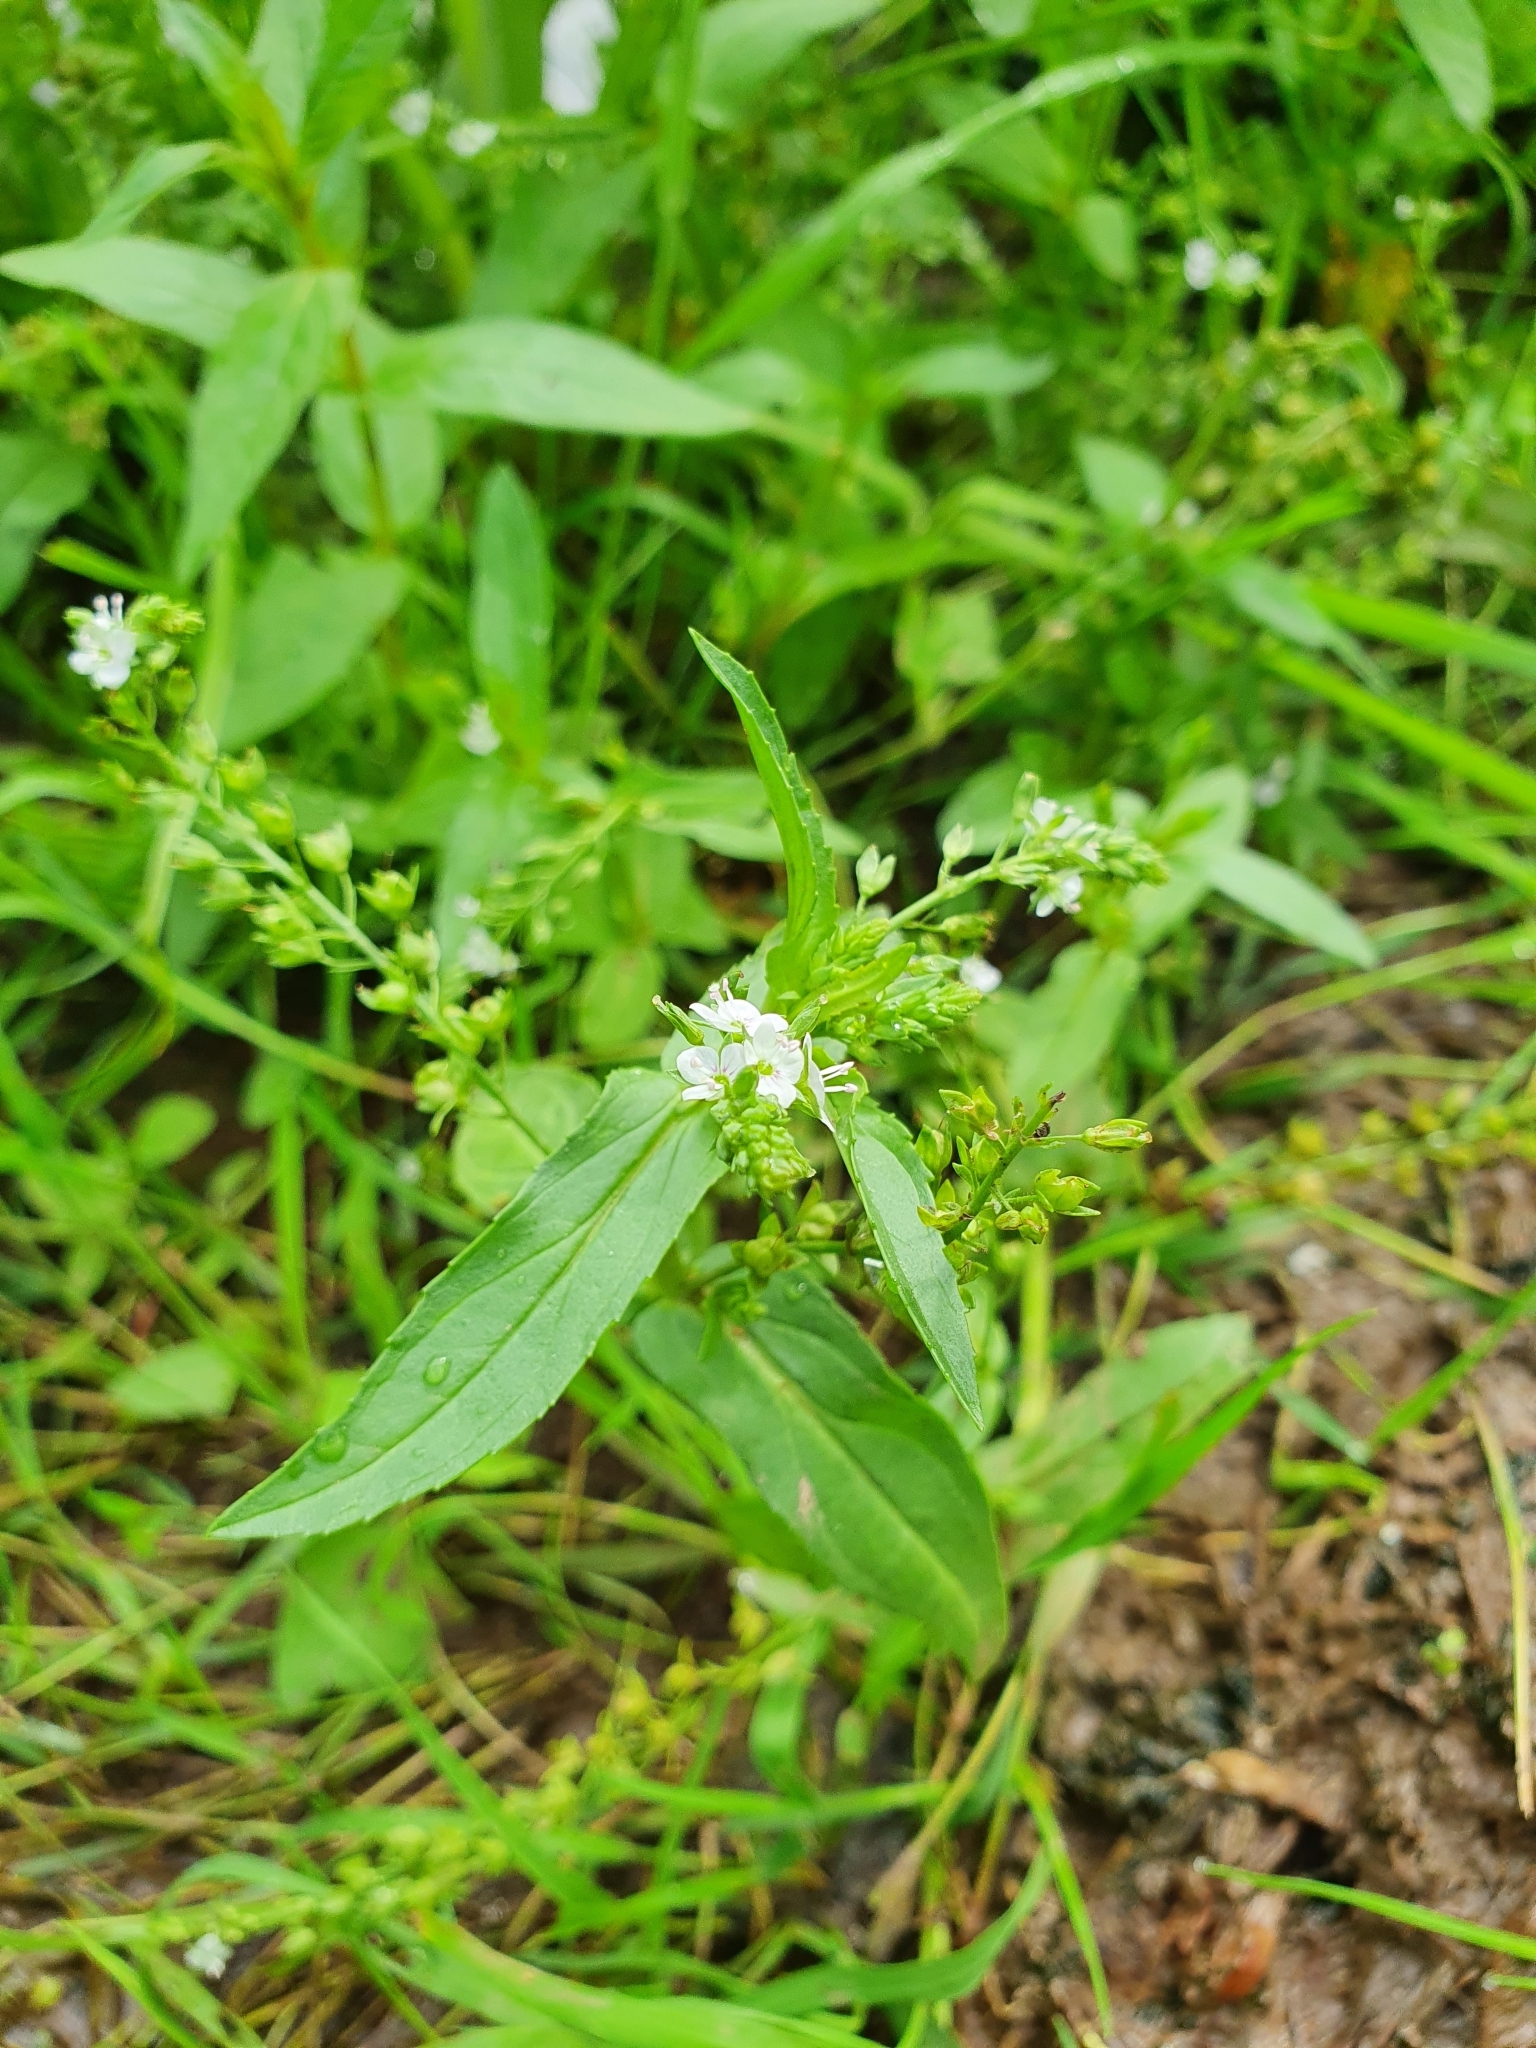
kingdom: Plantae
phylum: Tracheophyta
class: Magnoliopsida
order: Lamiales
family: Plantaginaceae
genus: Veronica
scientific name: Veronica anagallis-aquatica
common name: Water speedwell
